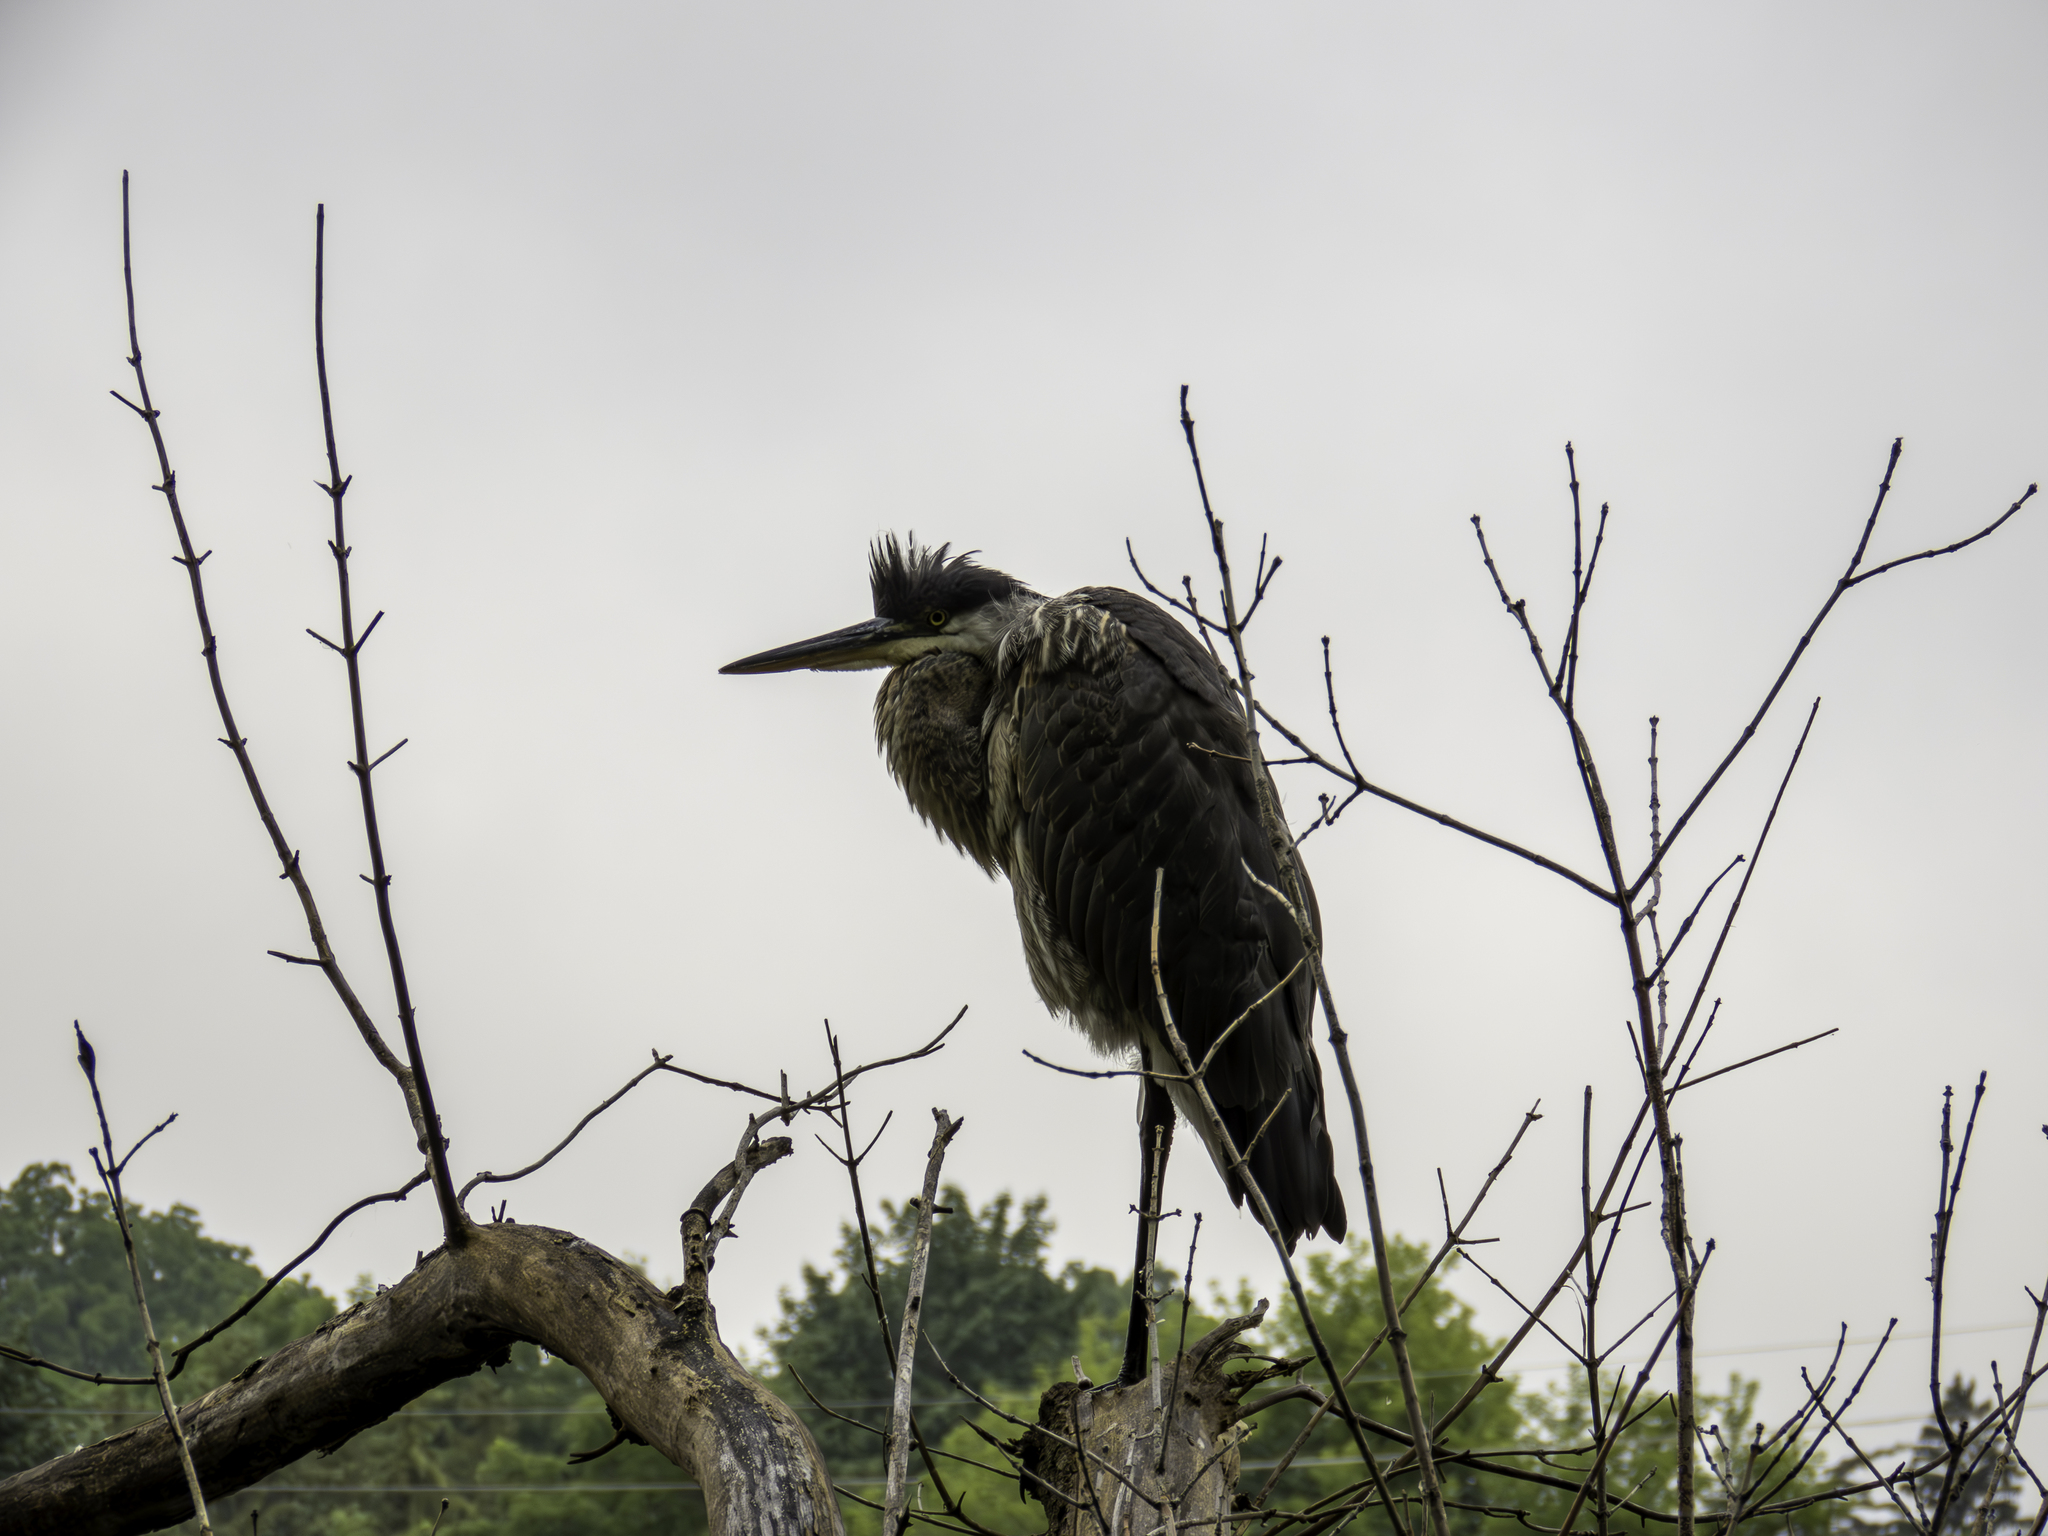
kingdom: Animalia
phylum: Chordata
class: Aves
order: Pelecaniformes
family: Ardeidae
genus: Ardea
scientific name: Ardea herodias
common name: Great blue heron
